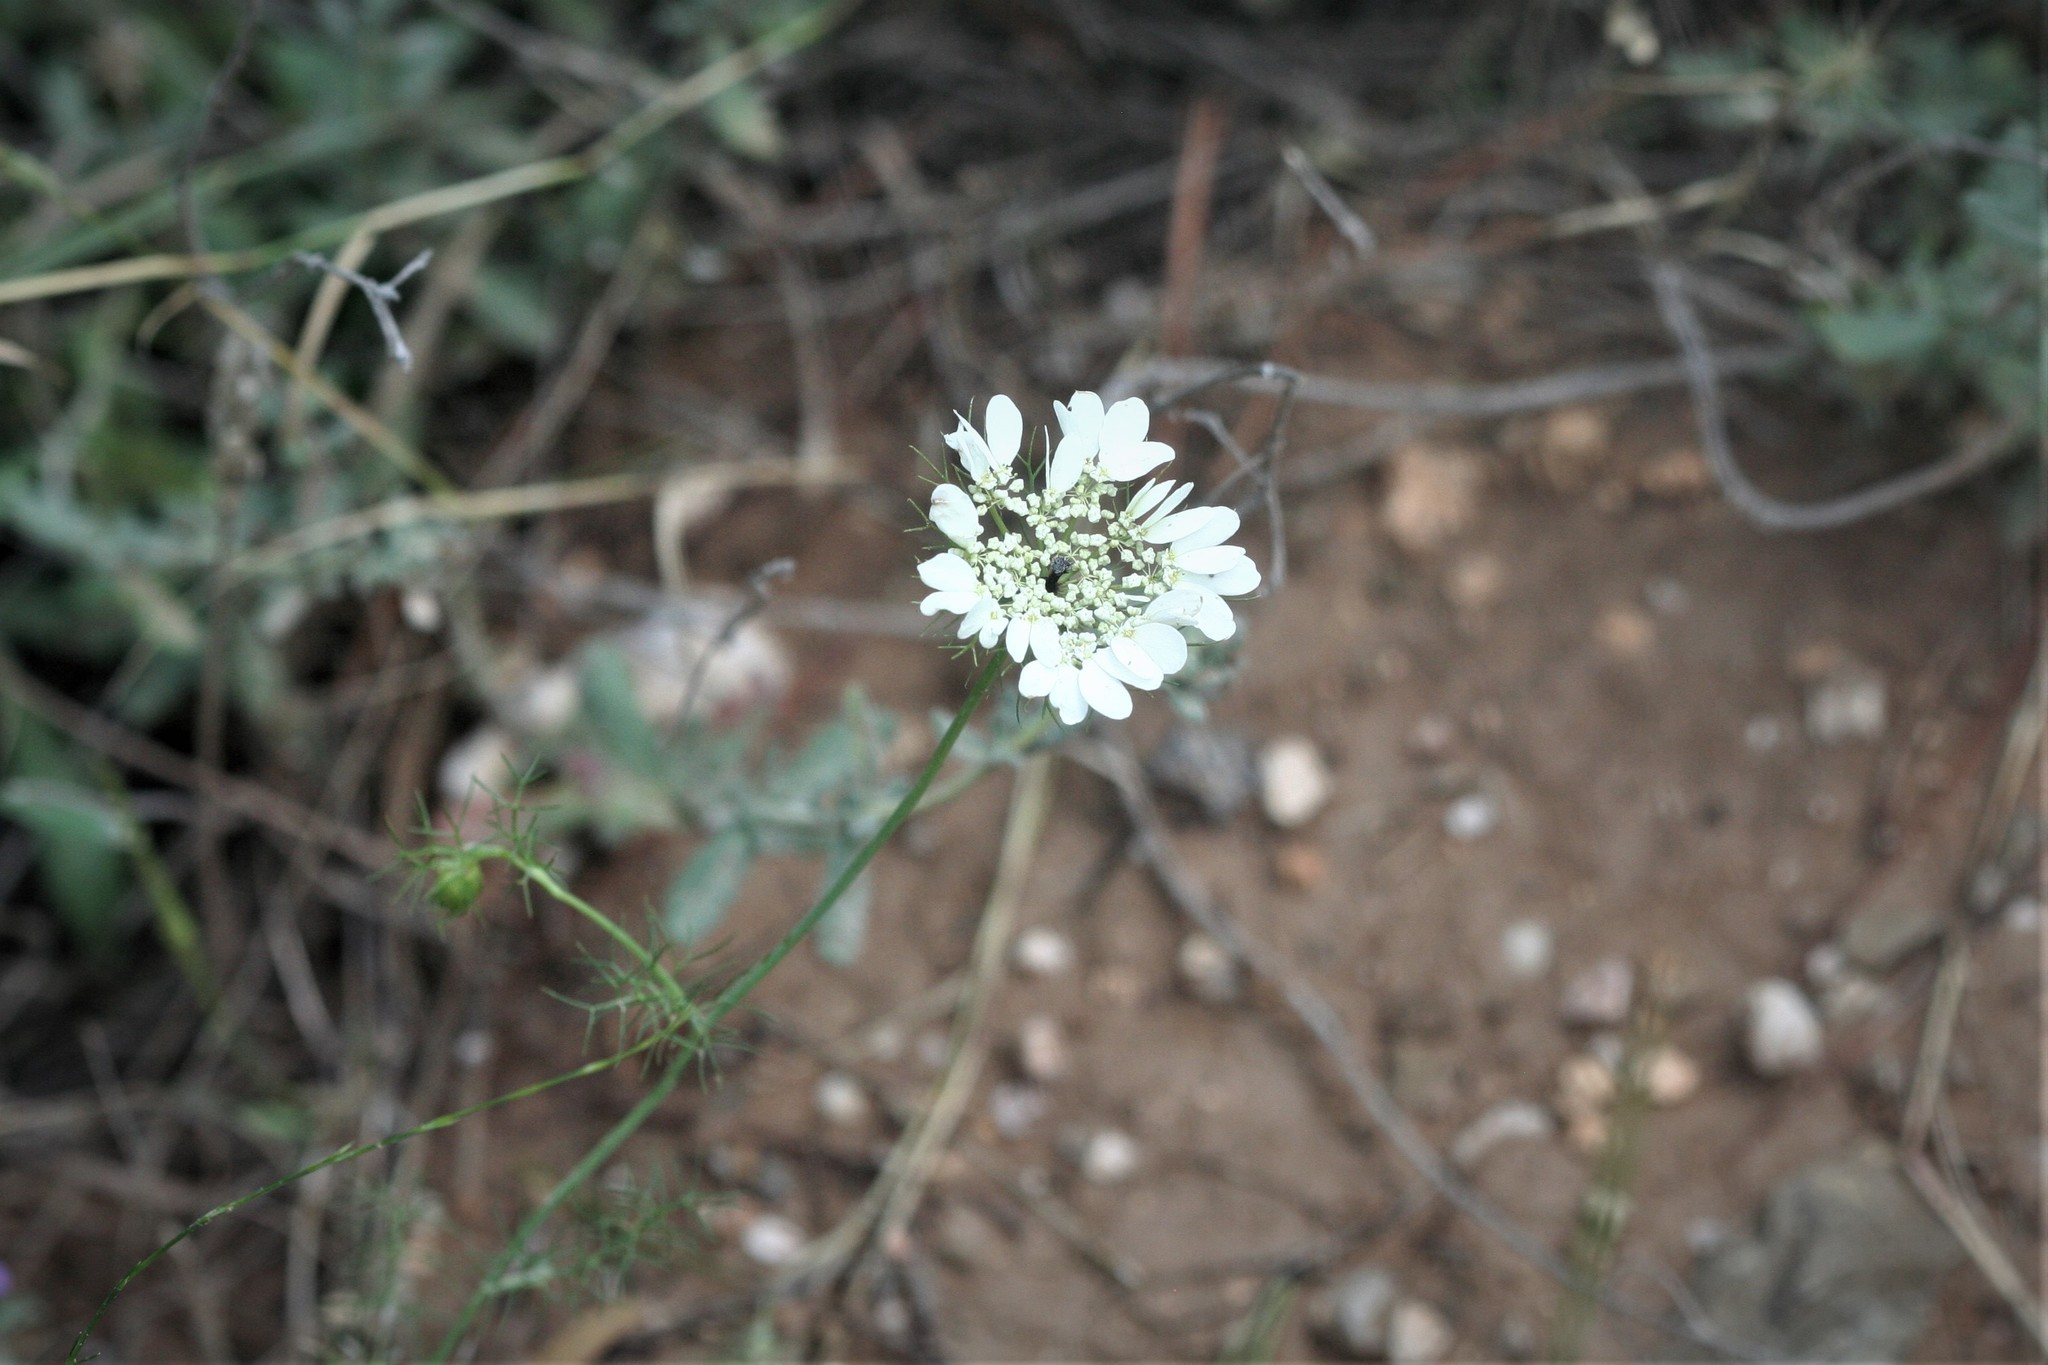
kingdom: Plantae
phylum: Tracheophyta
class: Magnoliopsida
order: Apiales
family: Apiaceae
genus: Artedia
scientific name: Artedia squamata
